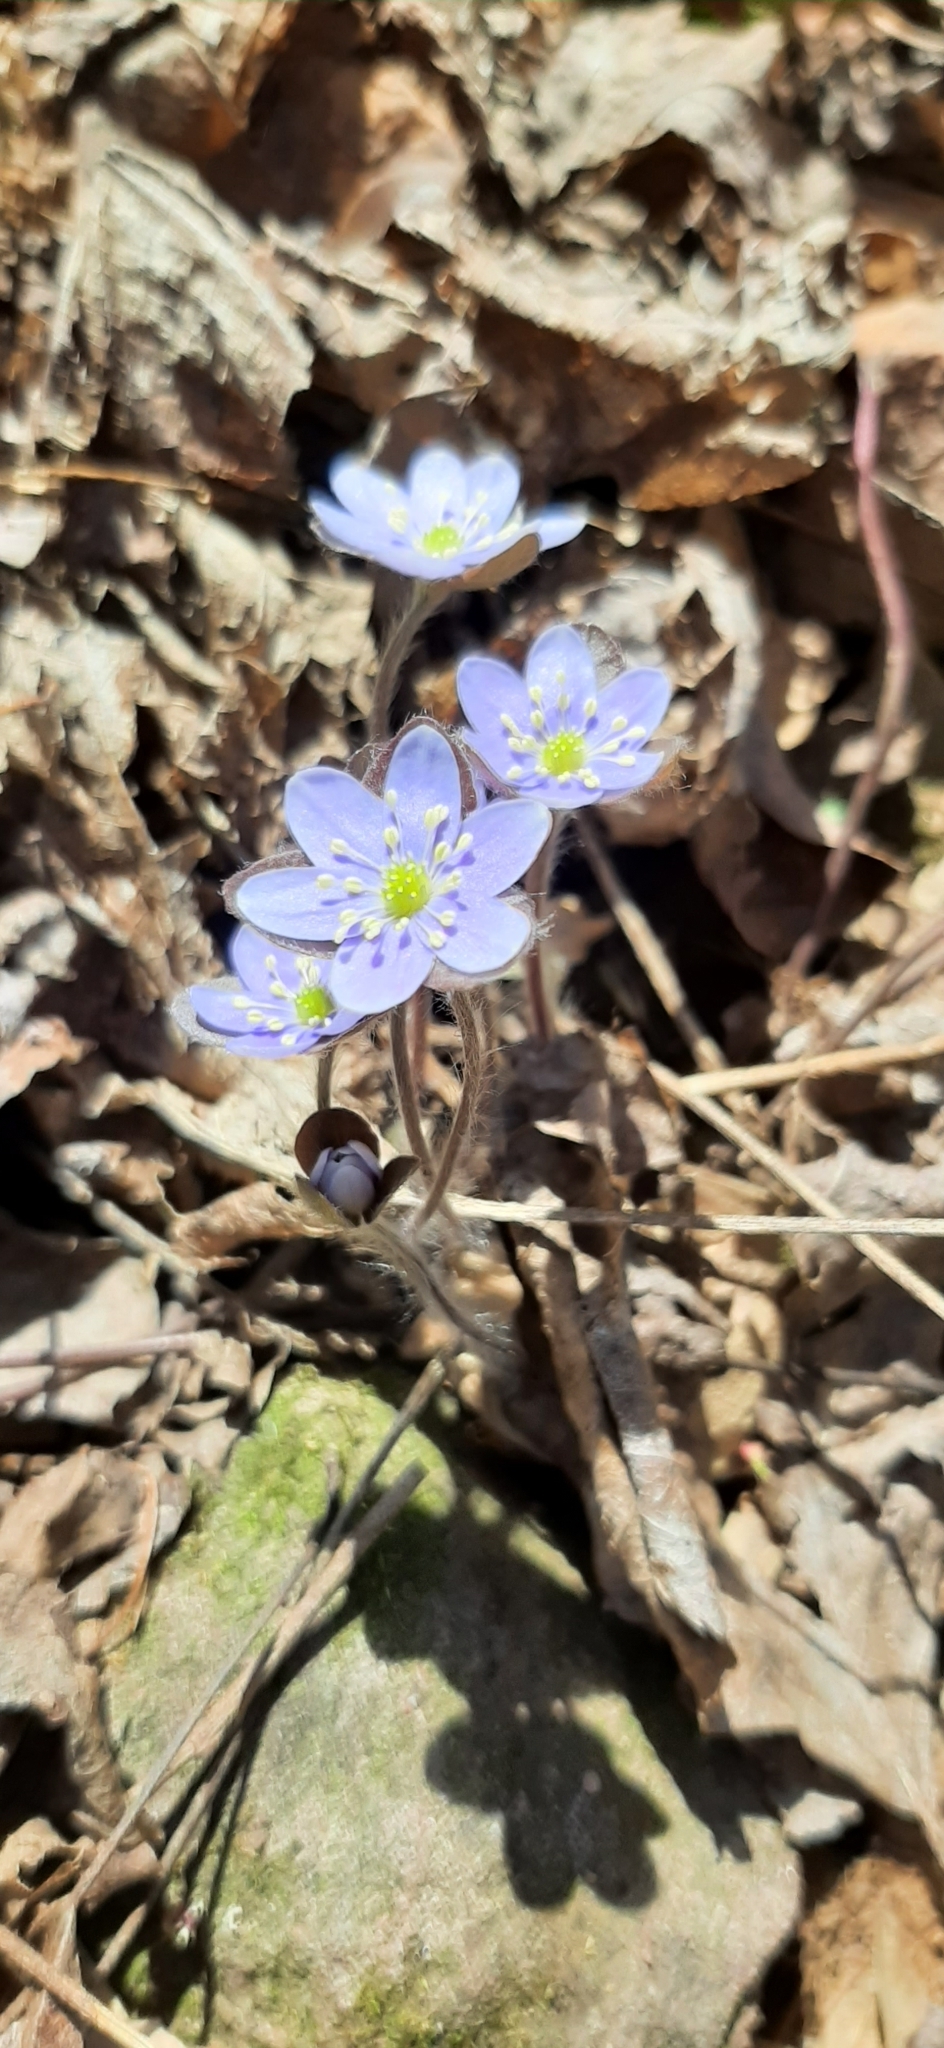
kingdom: Plantae
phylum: Tracheophyta
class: Magnoliopsida
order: Ranunculales
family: Ranunculaceae
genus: Hepatica
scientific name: Hepatica americana
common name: American hepatica
